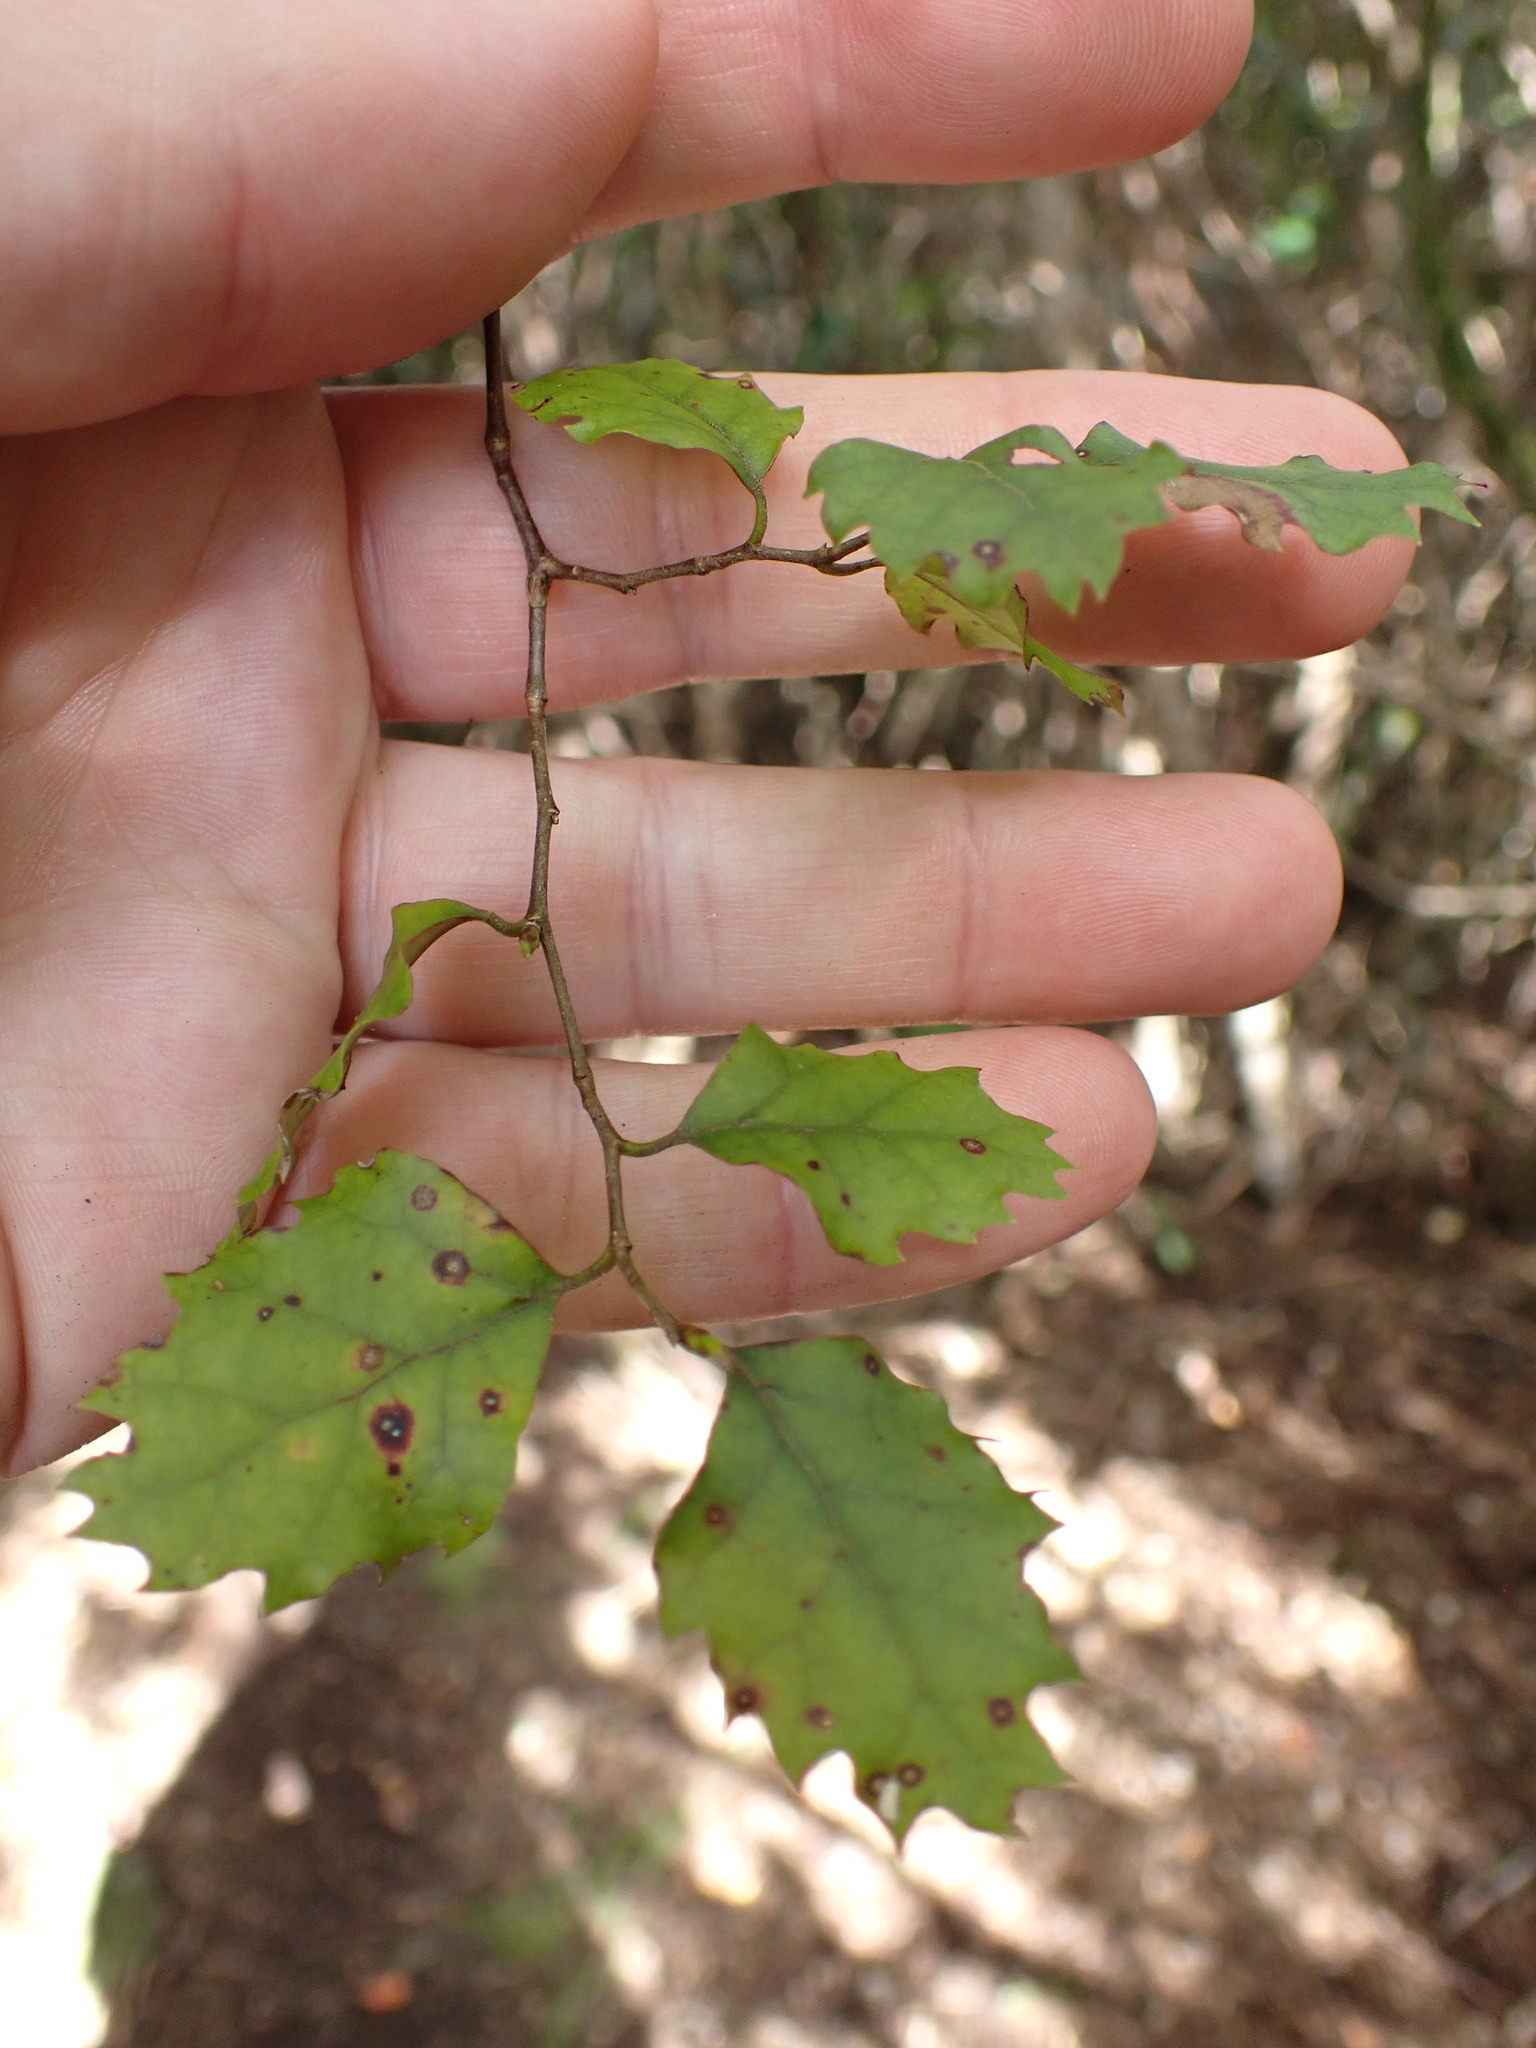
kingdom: Plantae
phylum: Tracheophyta
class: Magnoliopsida
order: Fagales
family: Nothofagaceae
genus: Nothofagus
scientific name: Nothofagus fusca
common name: Red beech
